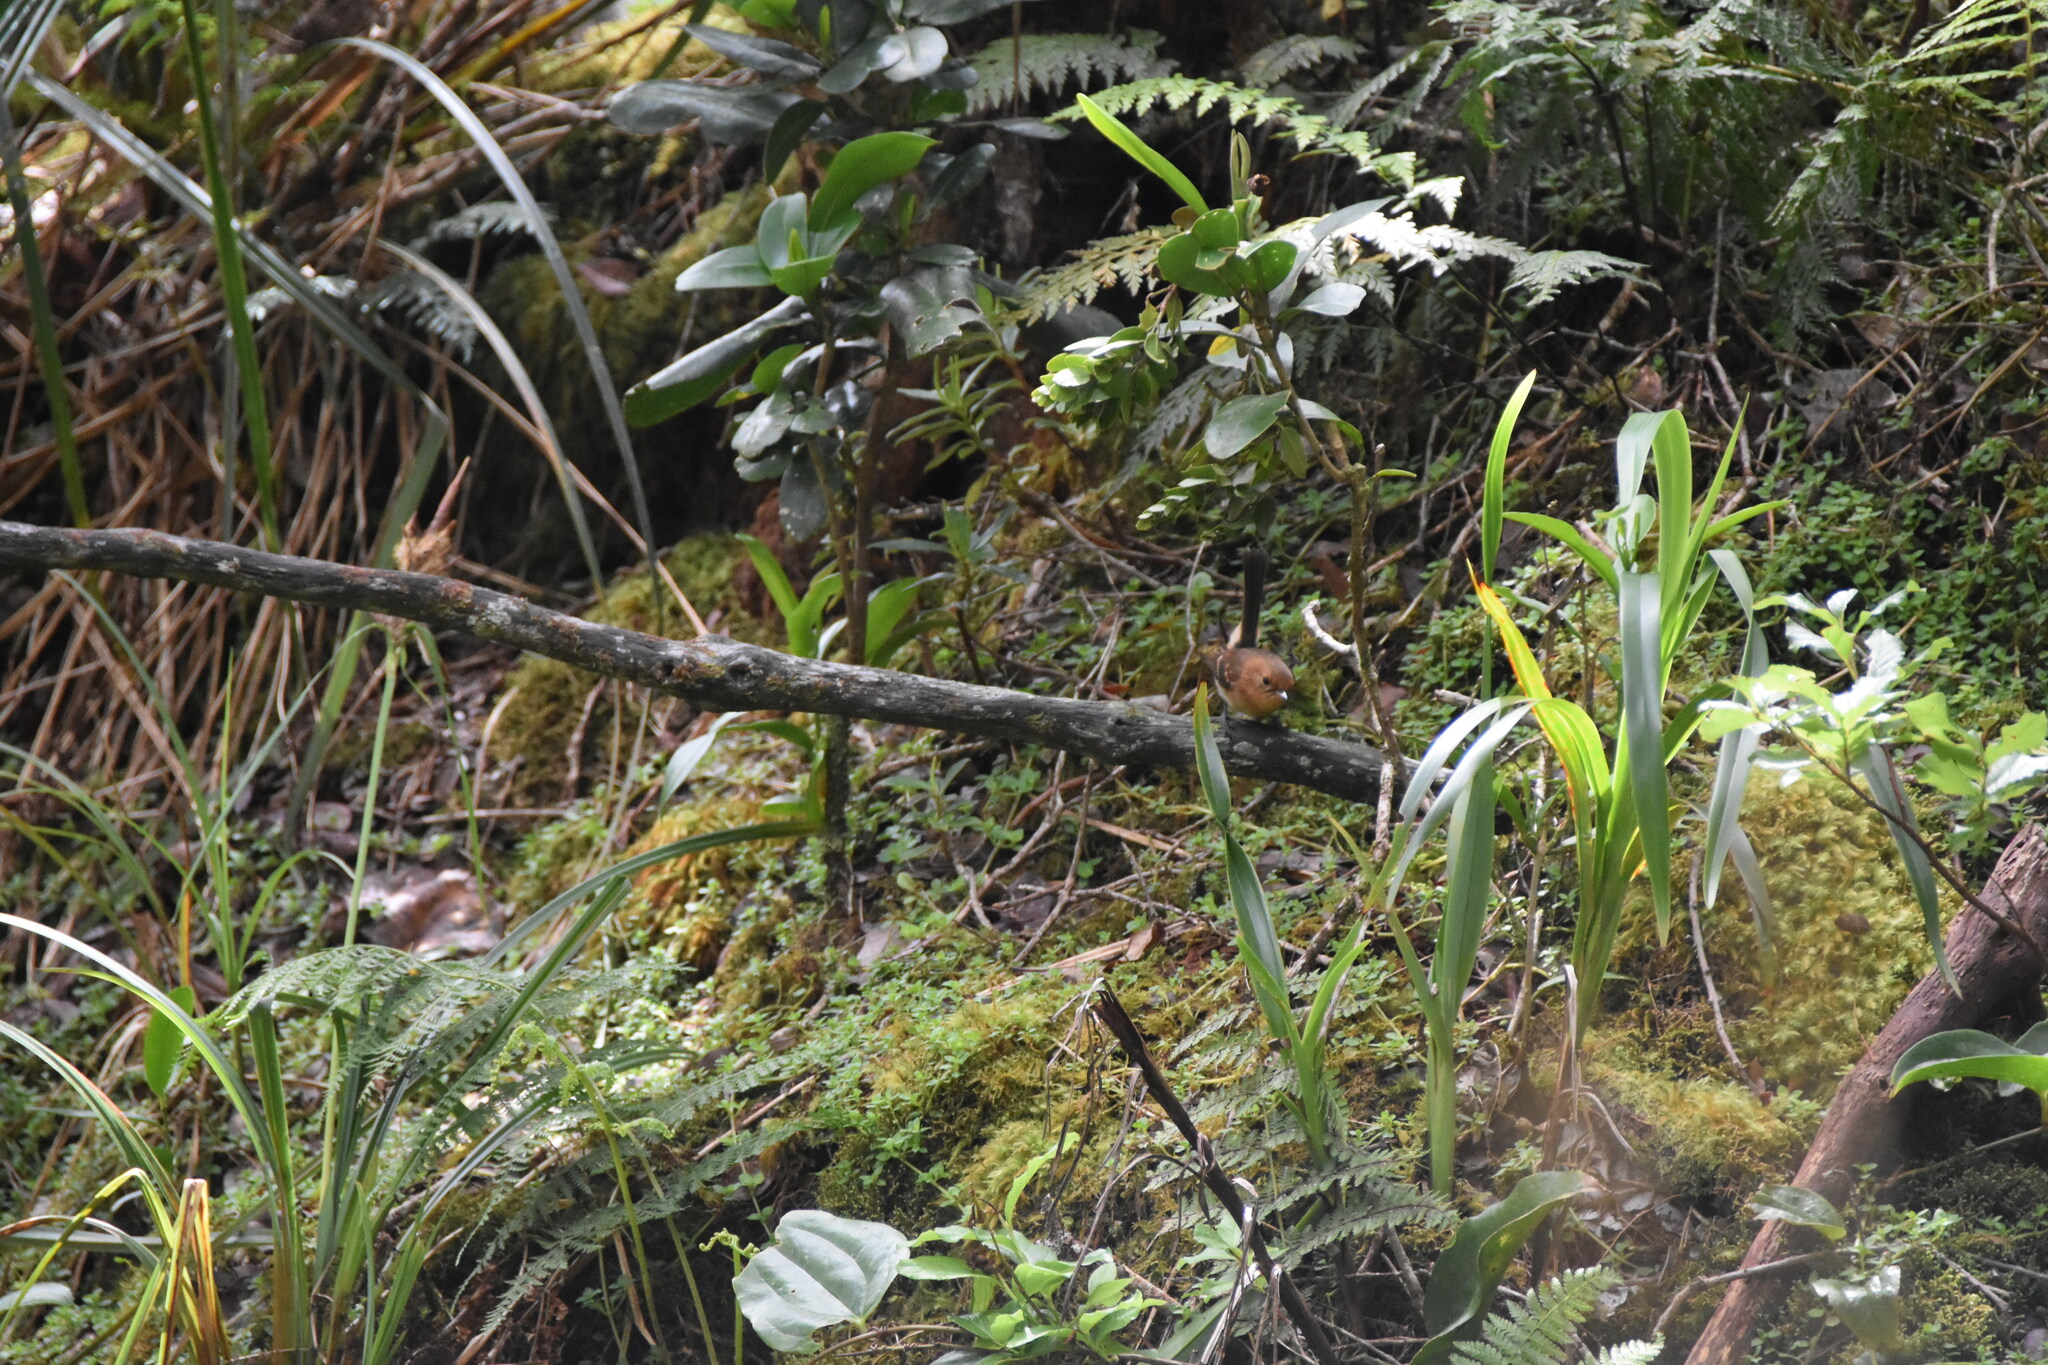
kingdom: Animalia
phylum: Chordata
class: Aves
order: Passeriformes
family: Monarchidae
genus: Chasiempis
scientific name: Chasiempis sclateri
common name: Kauai elepaio
